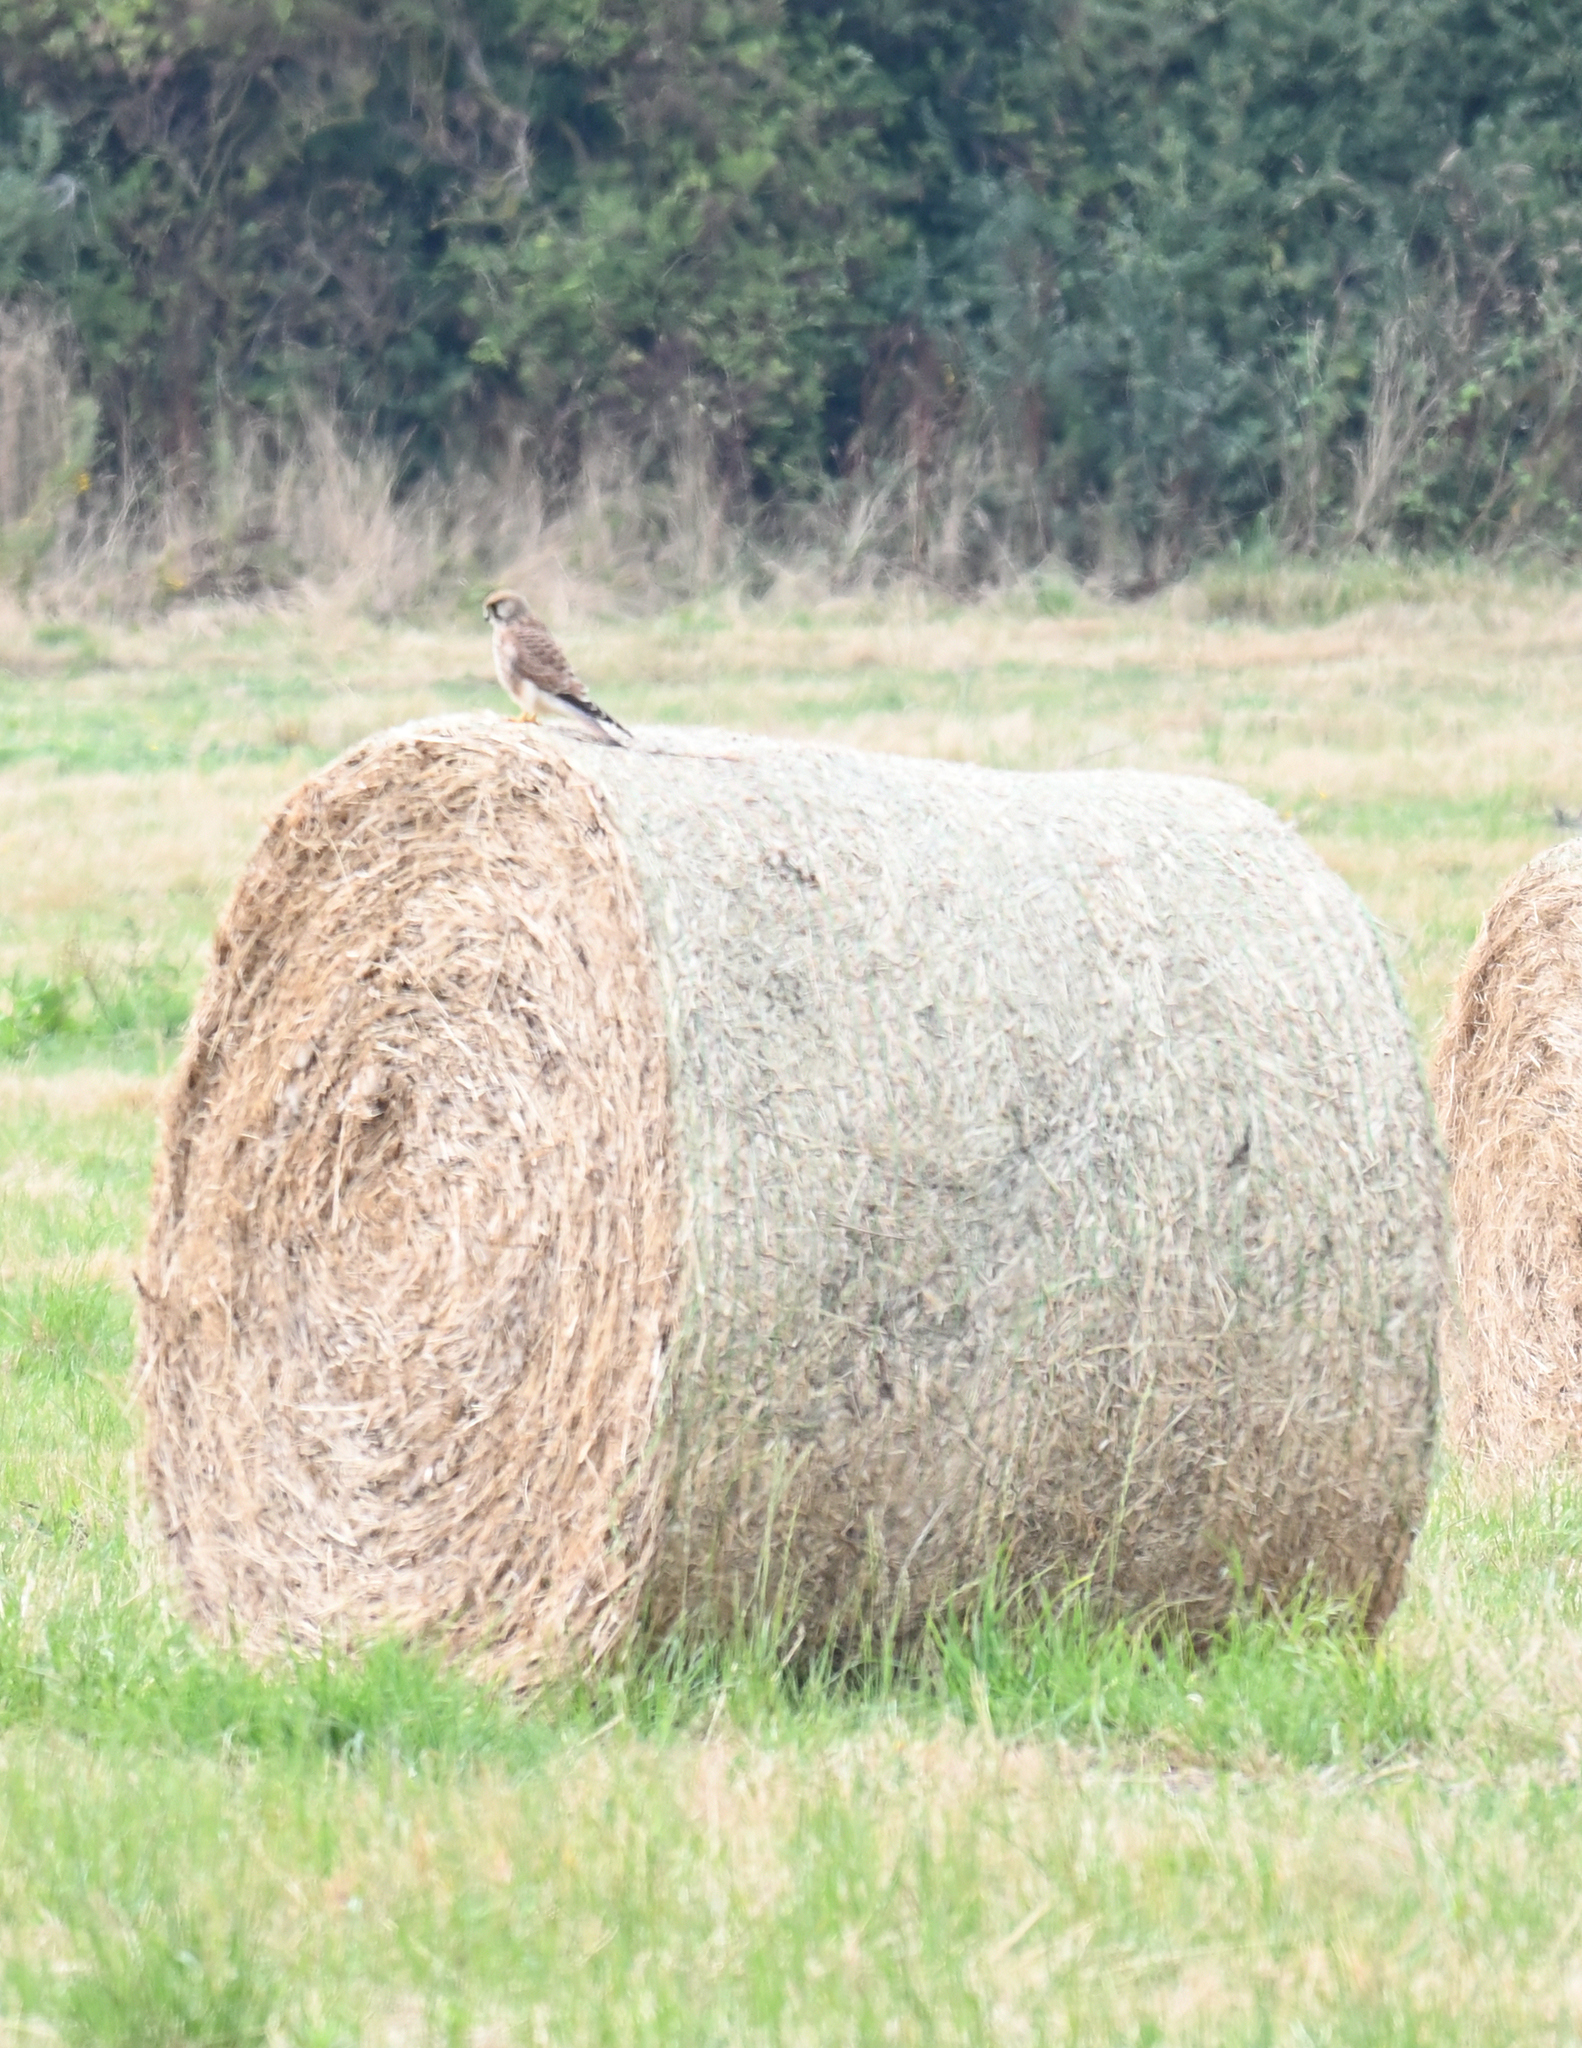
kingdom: Animalia
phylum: Chordata
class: Aves
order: Falconiformes
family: Falconidae
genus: Falco
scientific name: Falco tinnunculus
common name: Common kestrel
